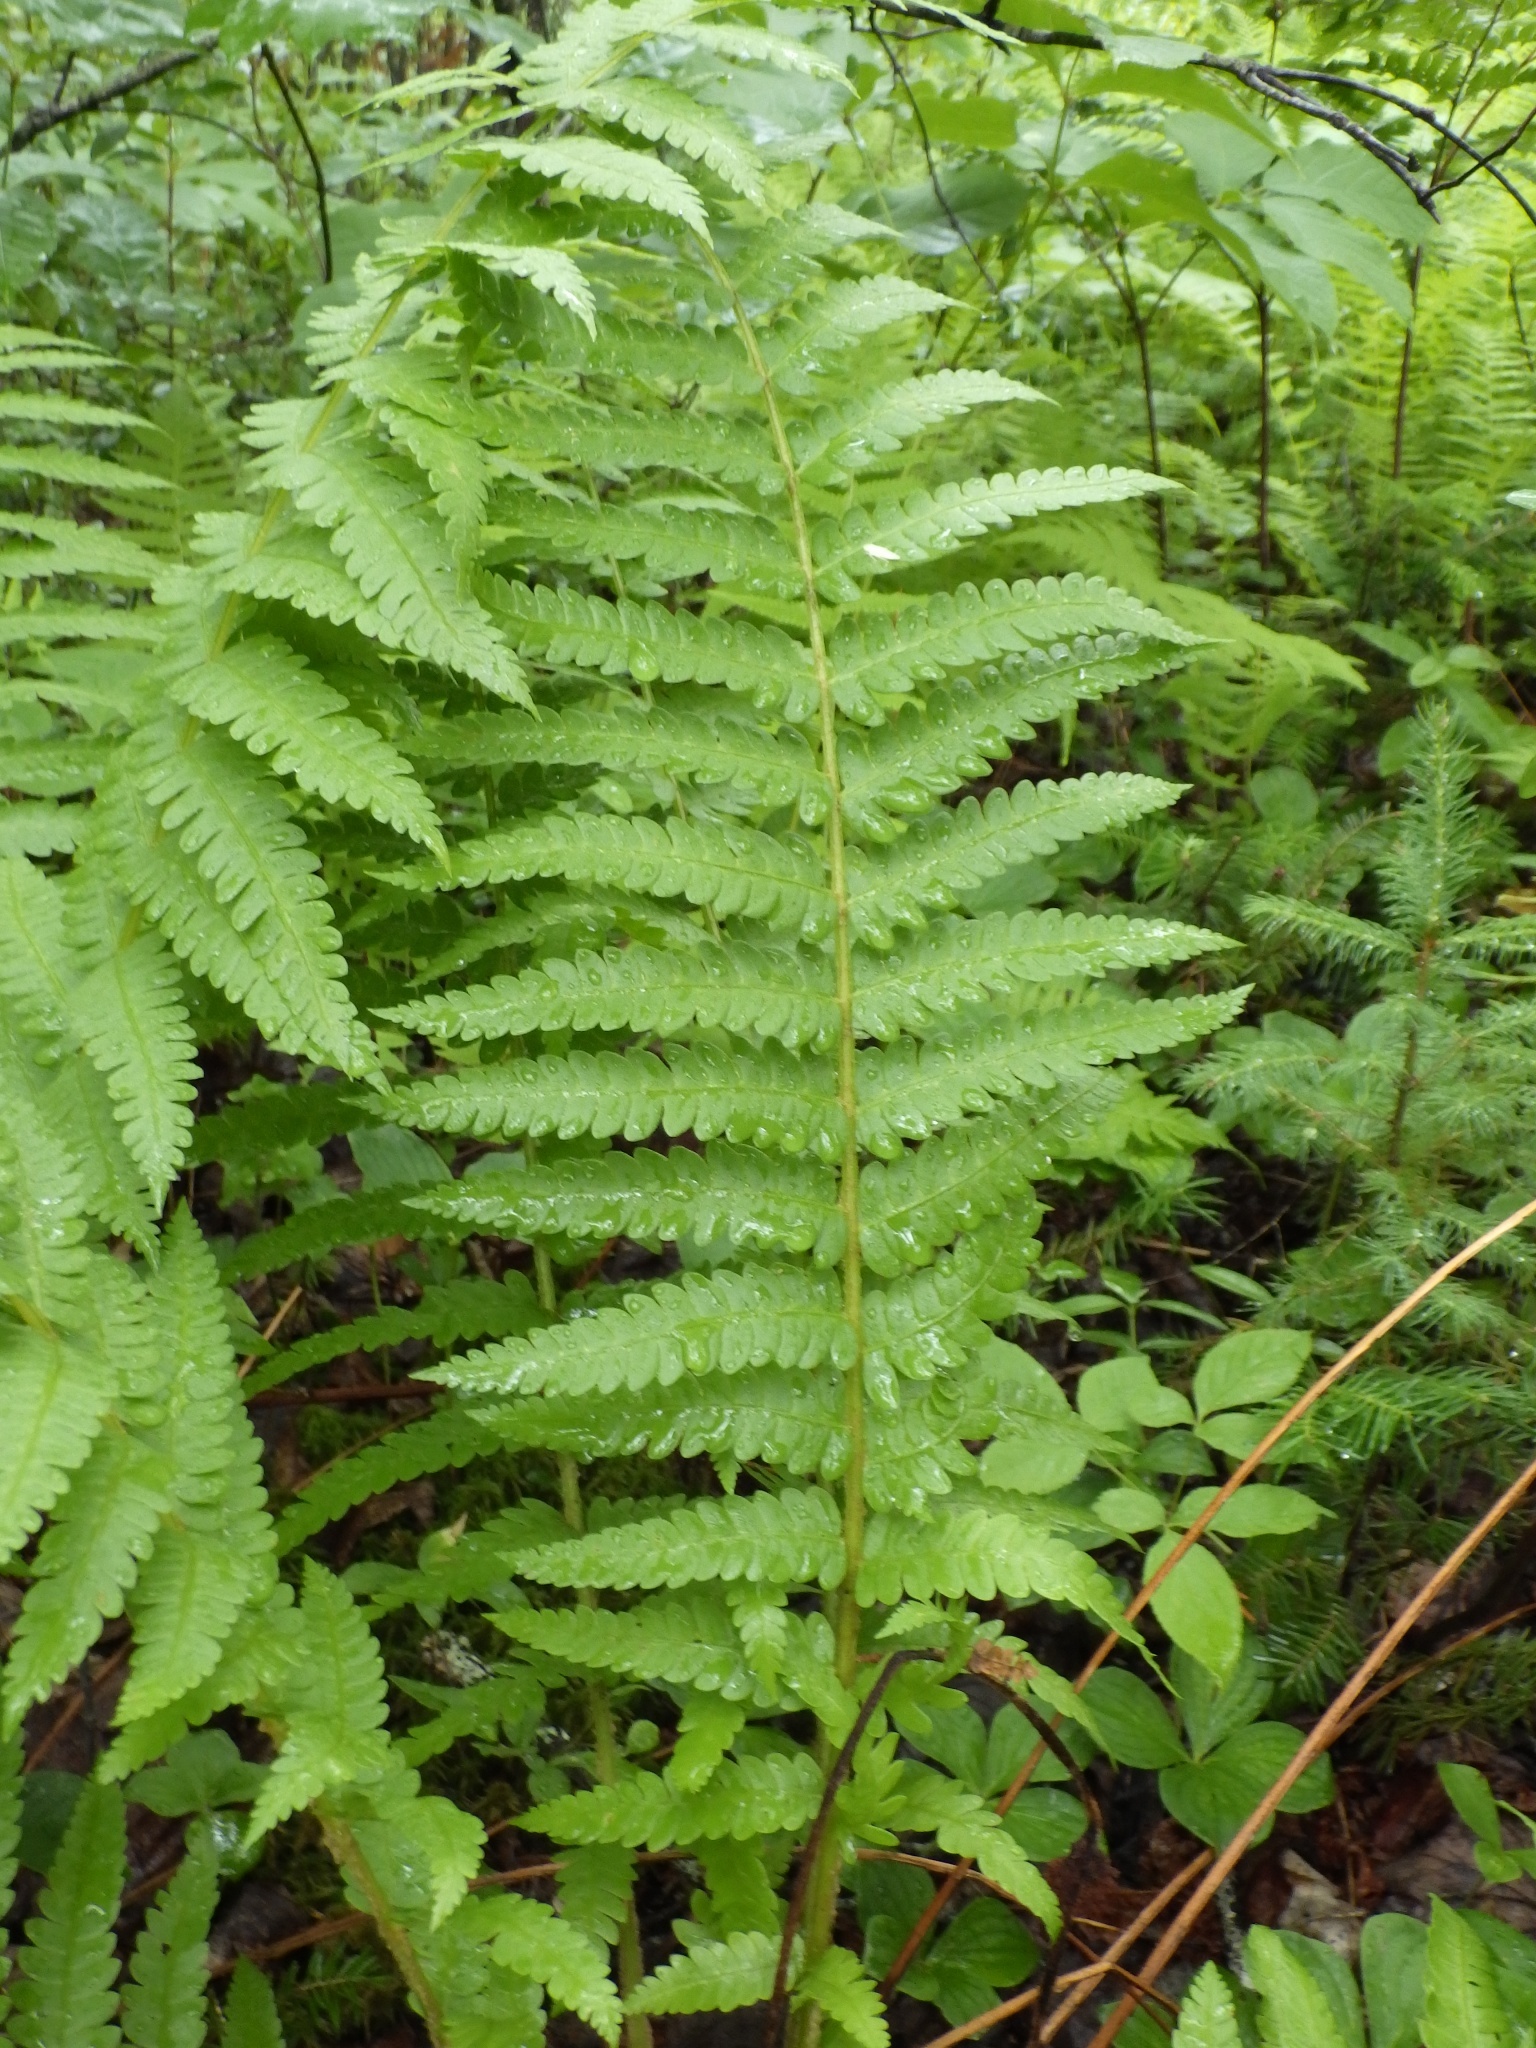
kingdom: Plantae
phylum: Tracheophyta
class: Polypodiopsida
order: Osmundales
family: Osmundaceae
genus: Osmundastrum
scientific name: Osmundastrum cinnamomeum
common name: Cinnamon fern
